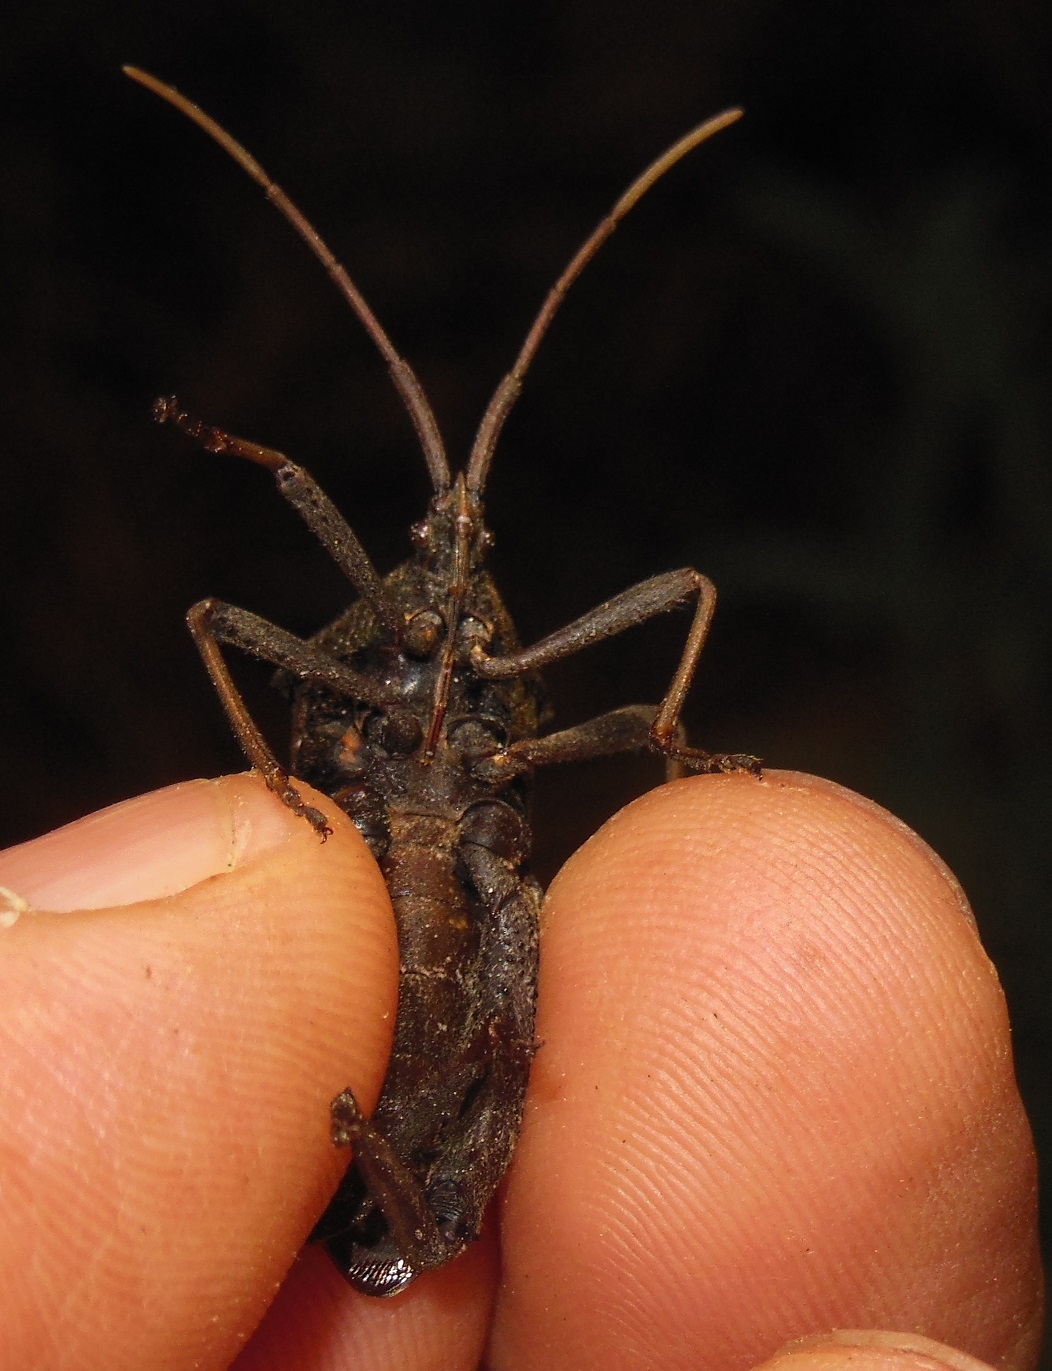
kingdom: Animalia
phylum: Arthropoda
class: Insecta
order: Hemiptera
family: Coreidae
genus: Acanthocephala
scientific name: Acanthocephala femorata
